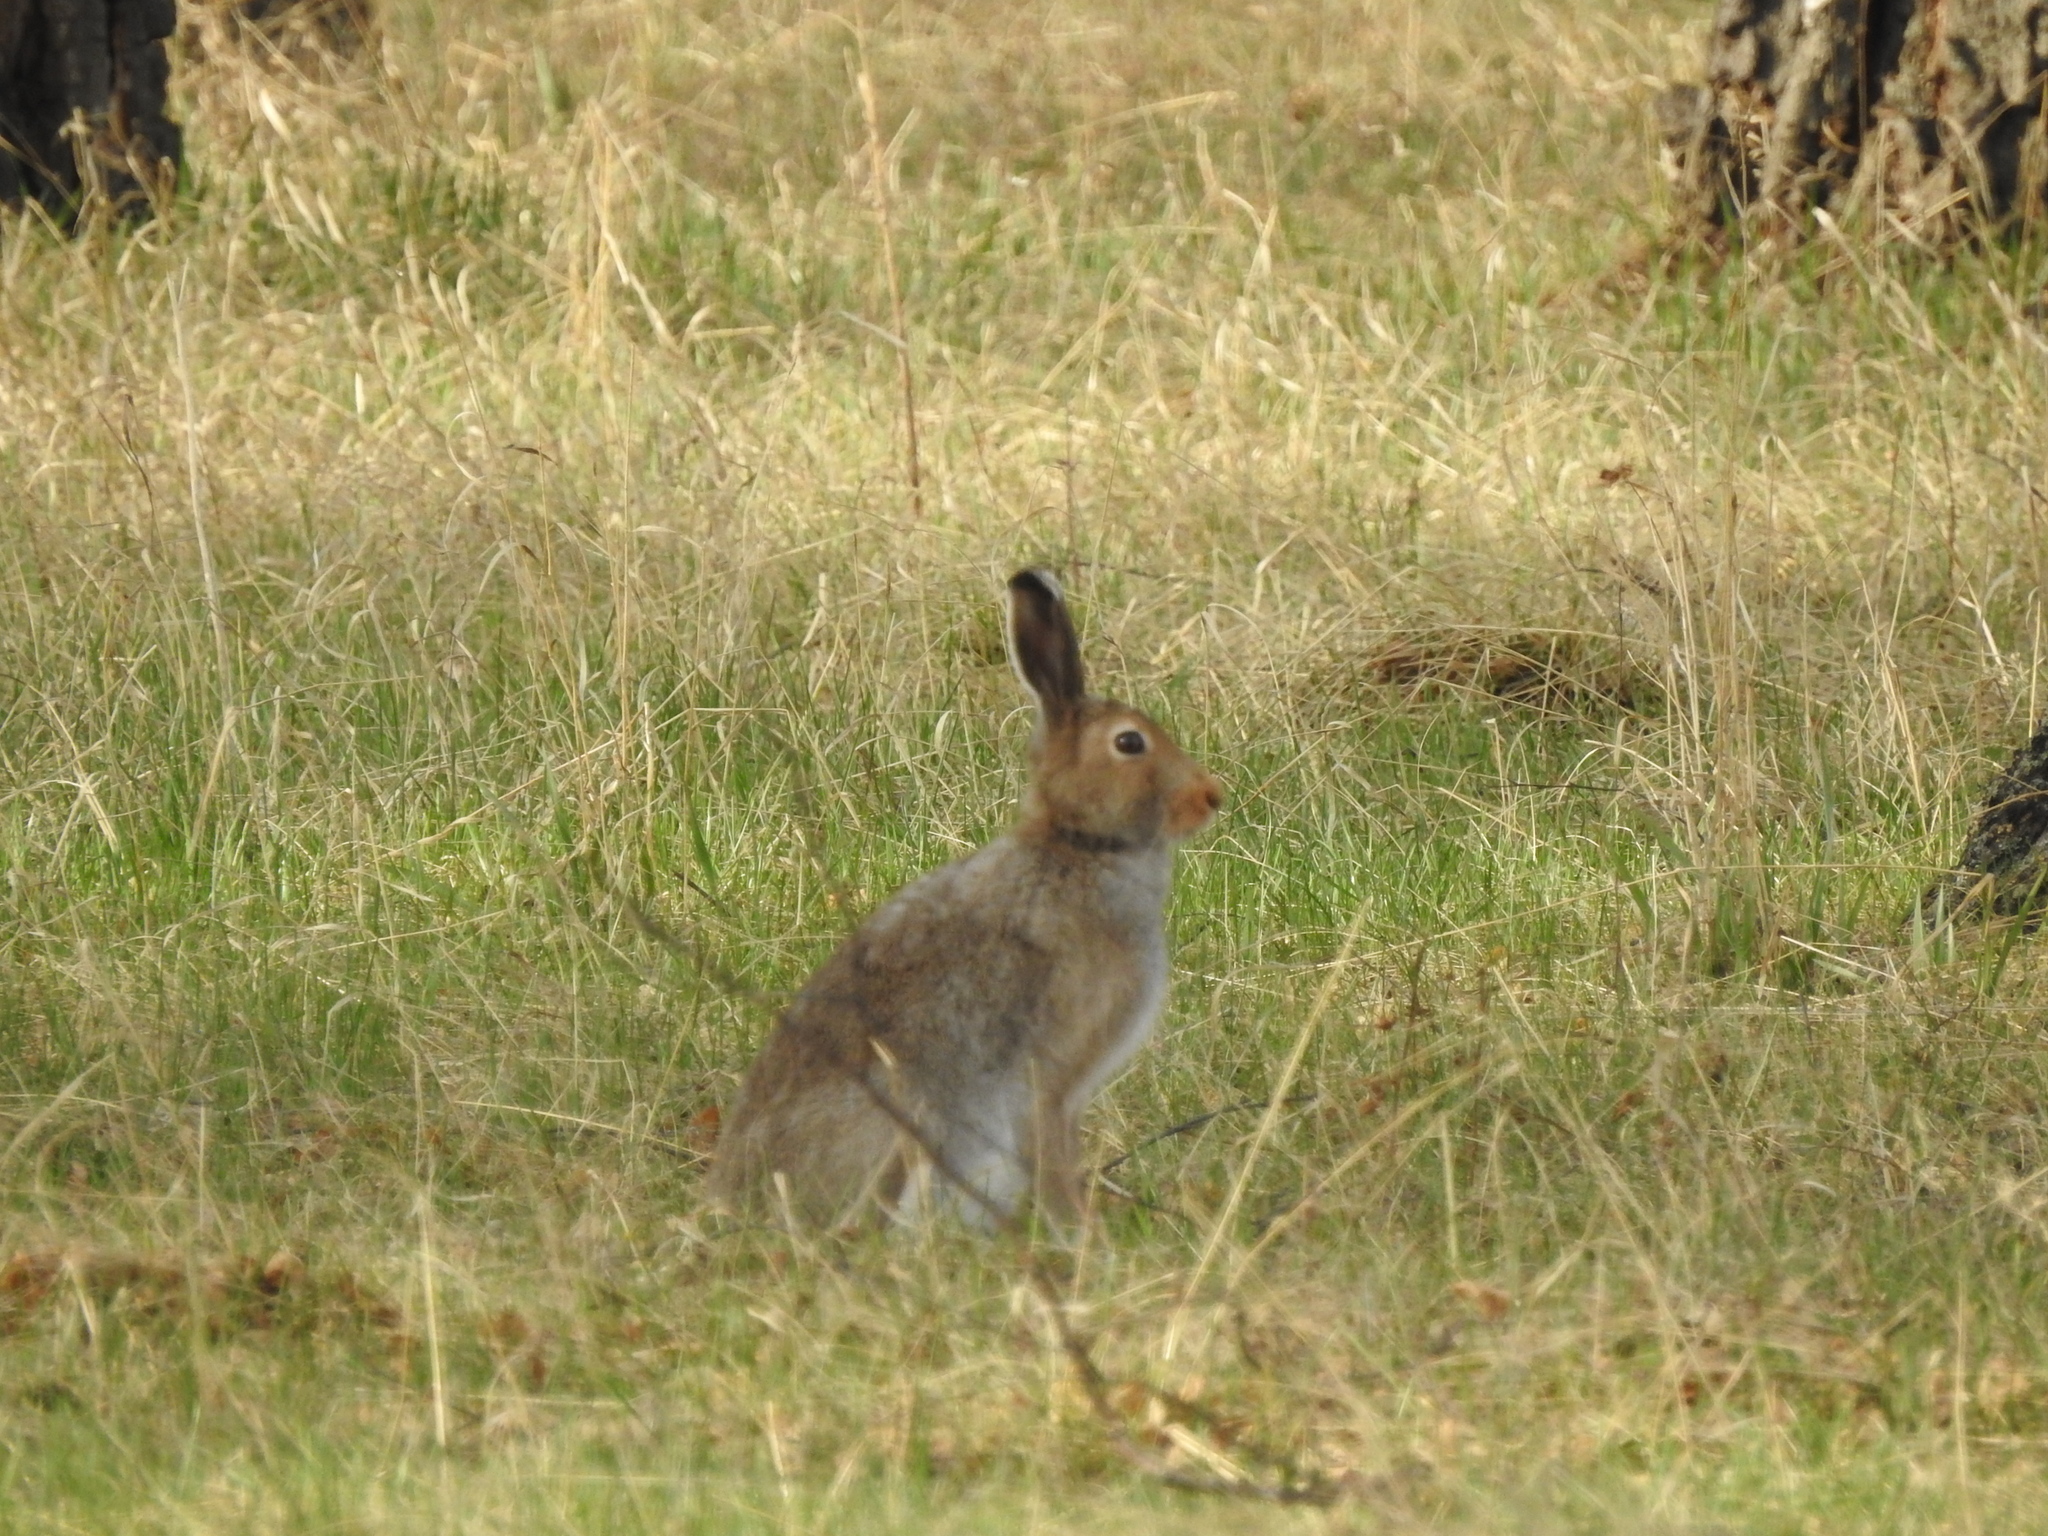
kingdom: Animalia
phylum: Chordata
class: Mammalia
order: Lagomorpha
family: Leporidae
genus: Lepus
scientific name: Lepus timidus
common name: Mountain hare
